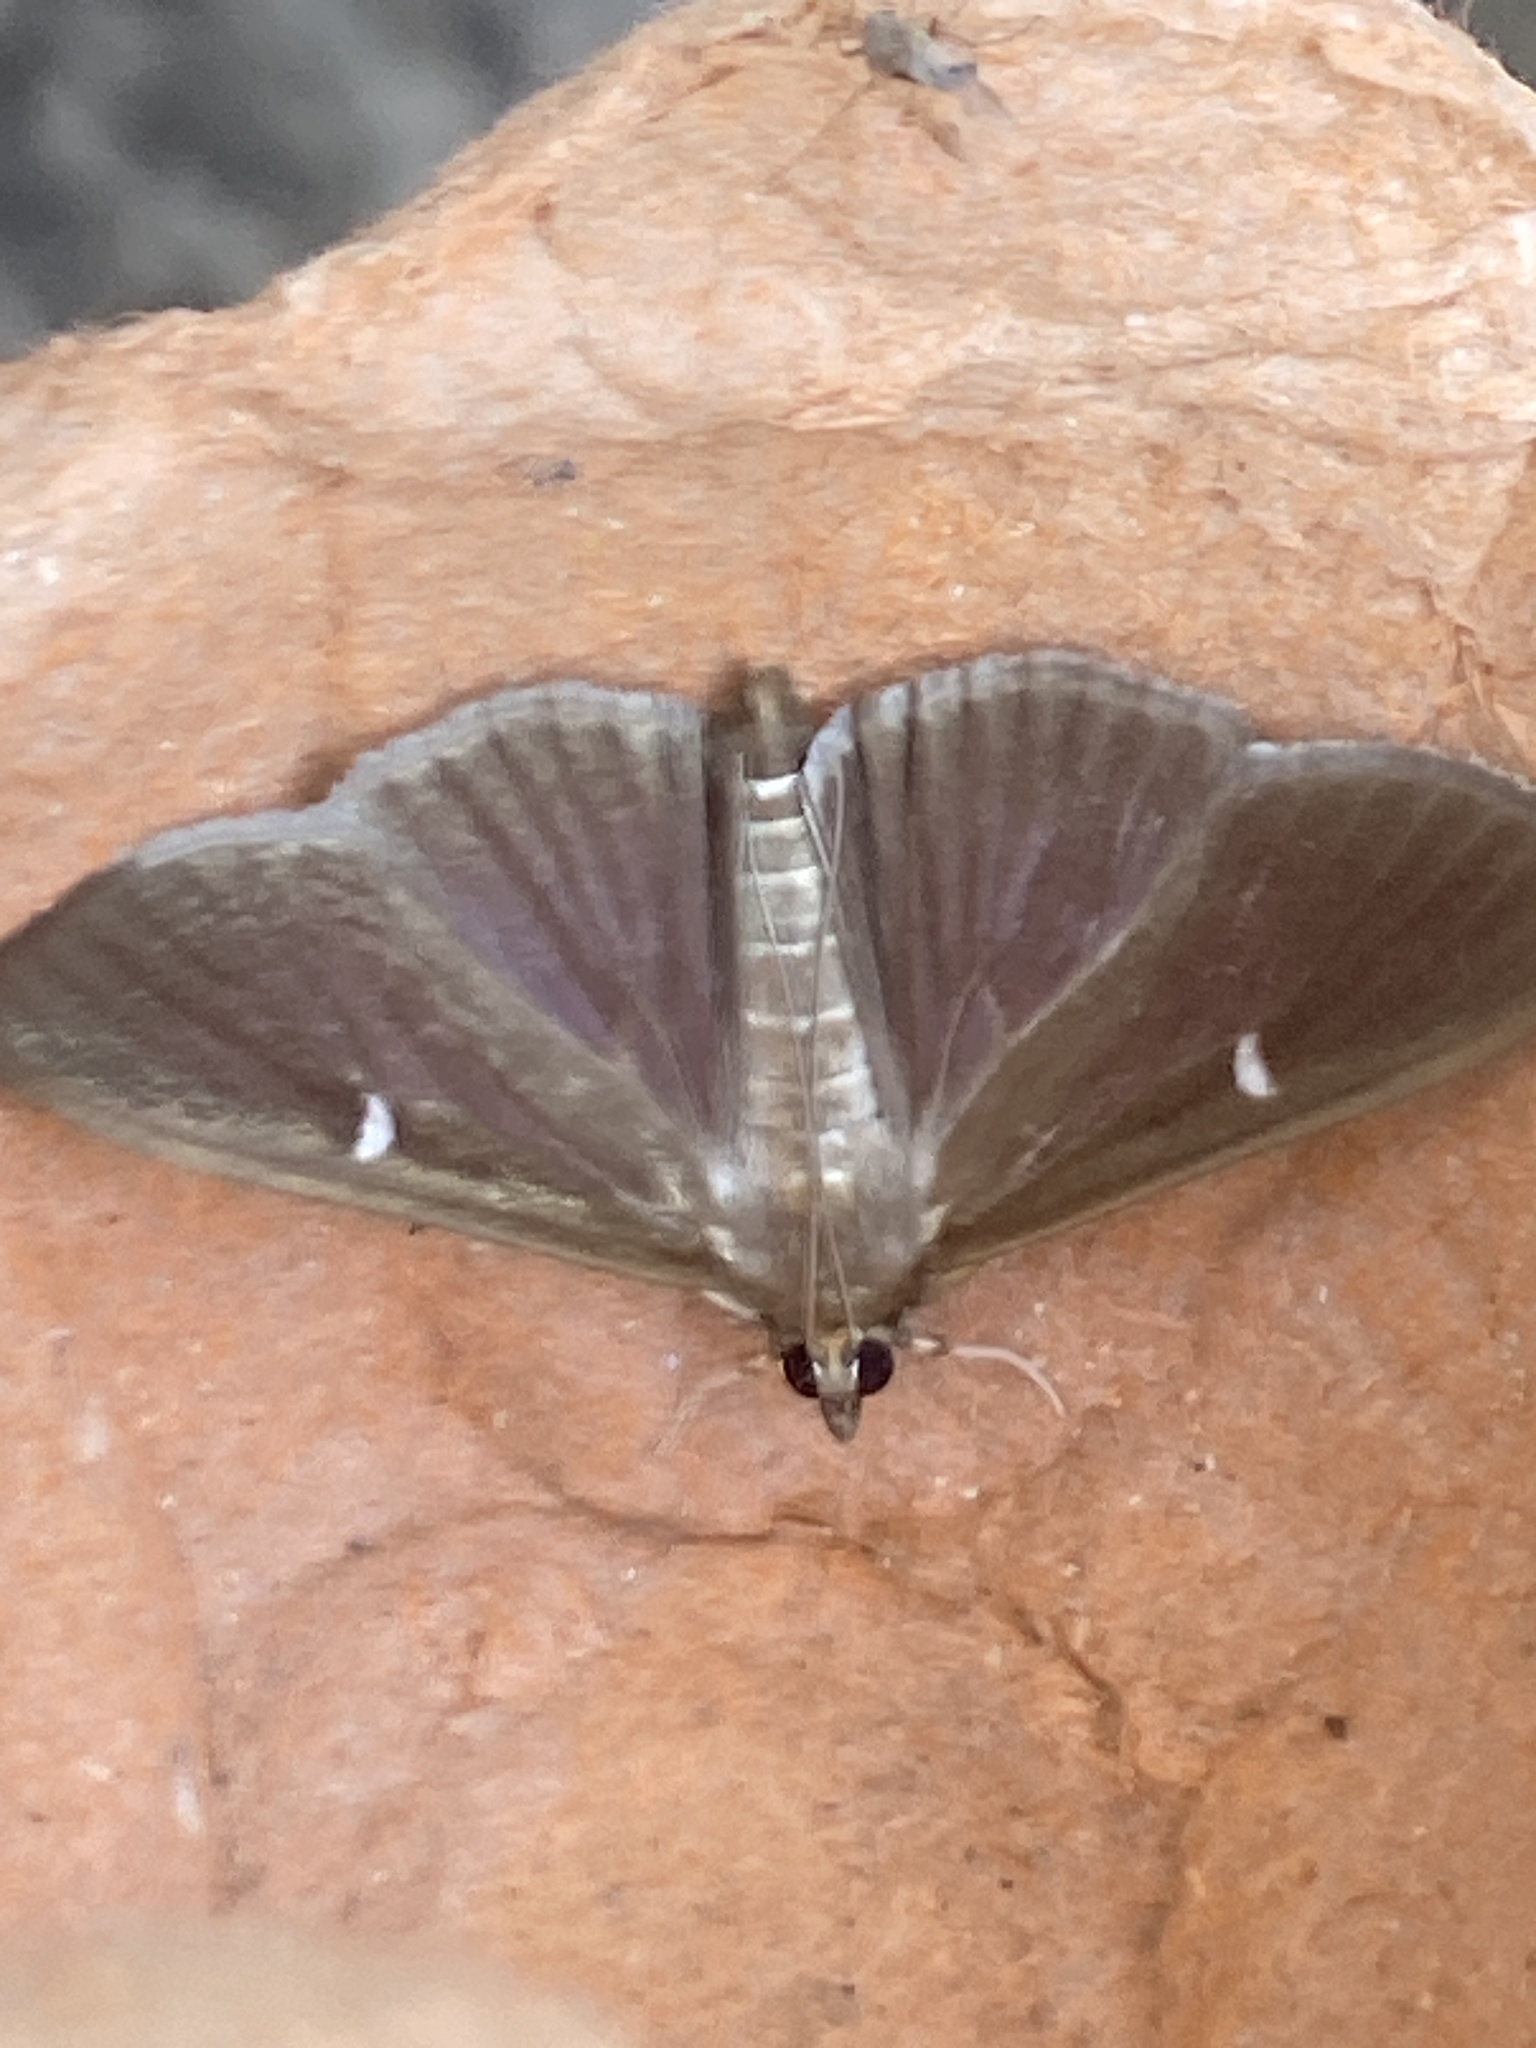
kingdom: Animalia
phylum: Arthropoda
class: Insecta
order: Lepidoptera
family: Crambidae
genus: Cydalima
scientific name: Cydalima perspectalis
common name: Box tree moth
